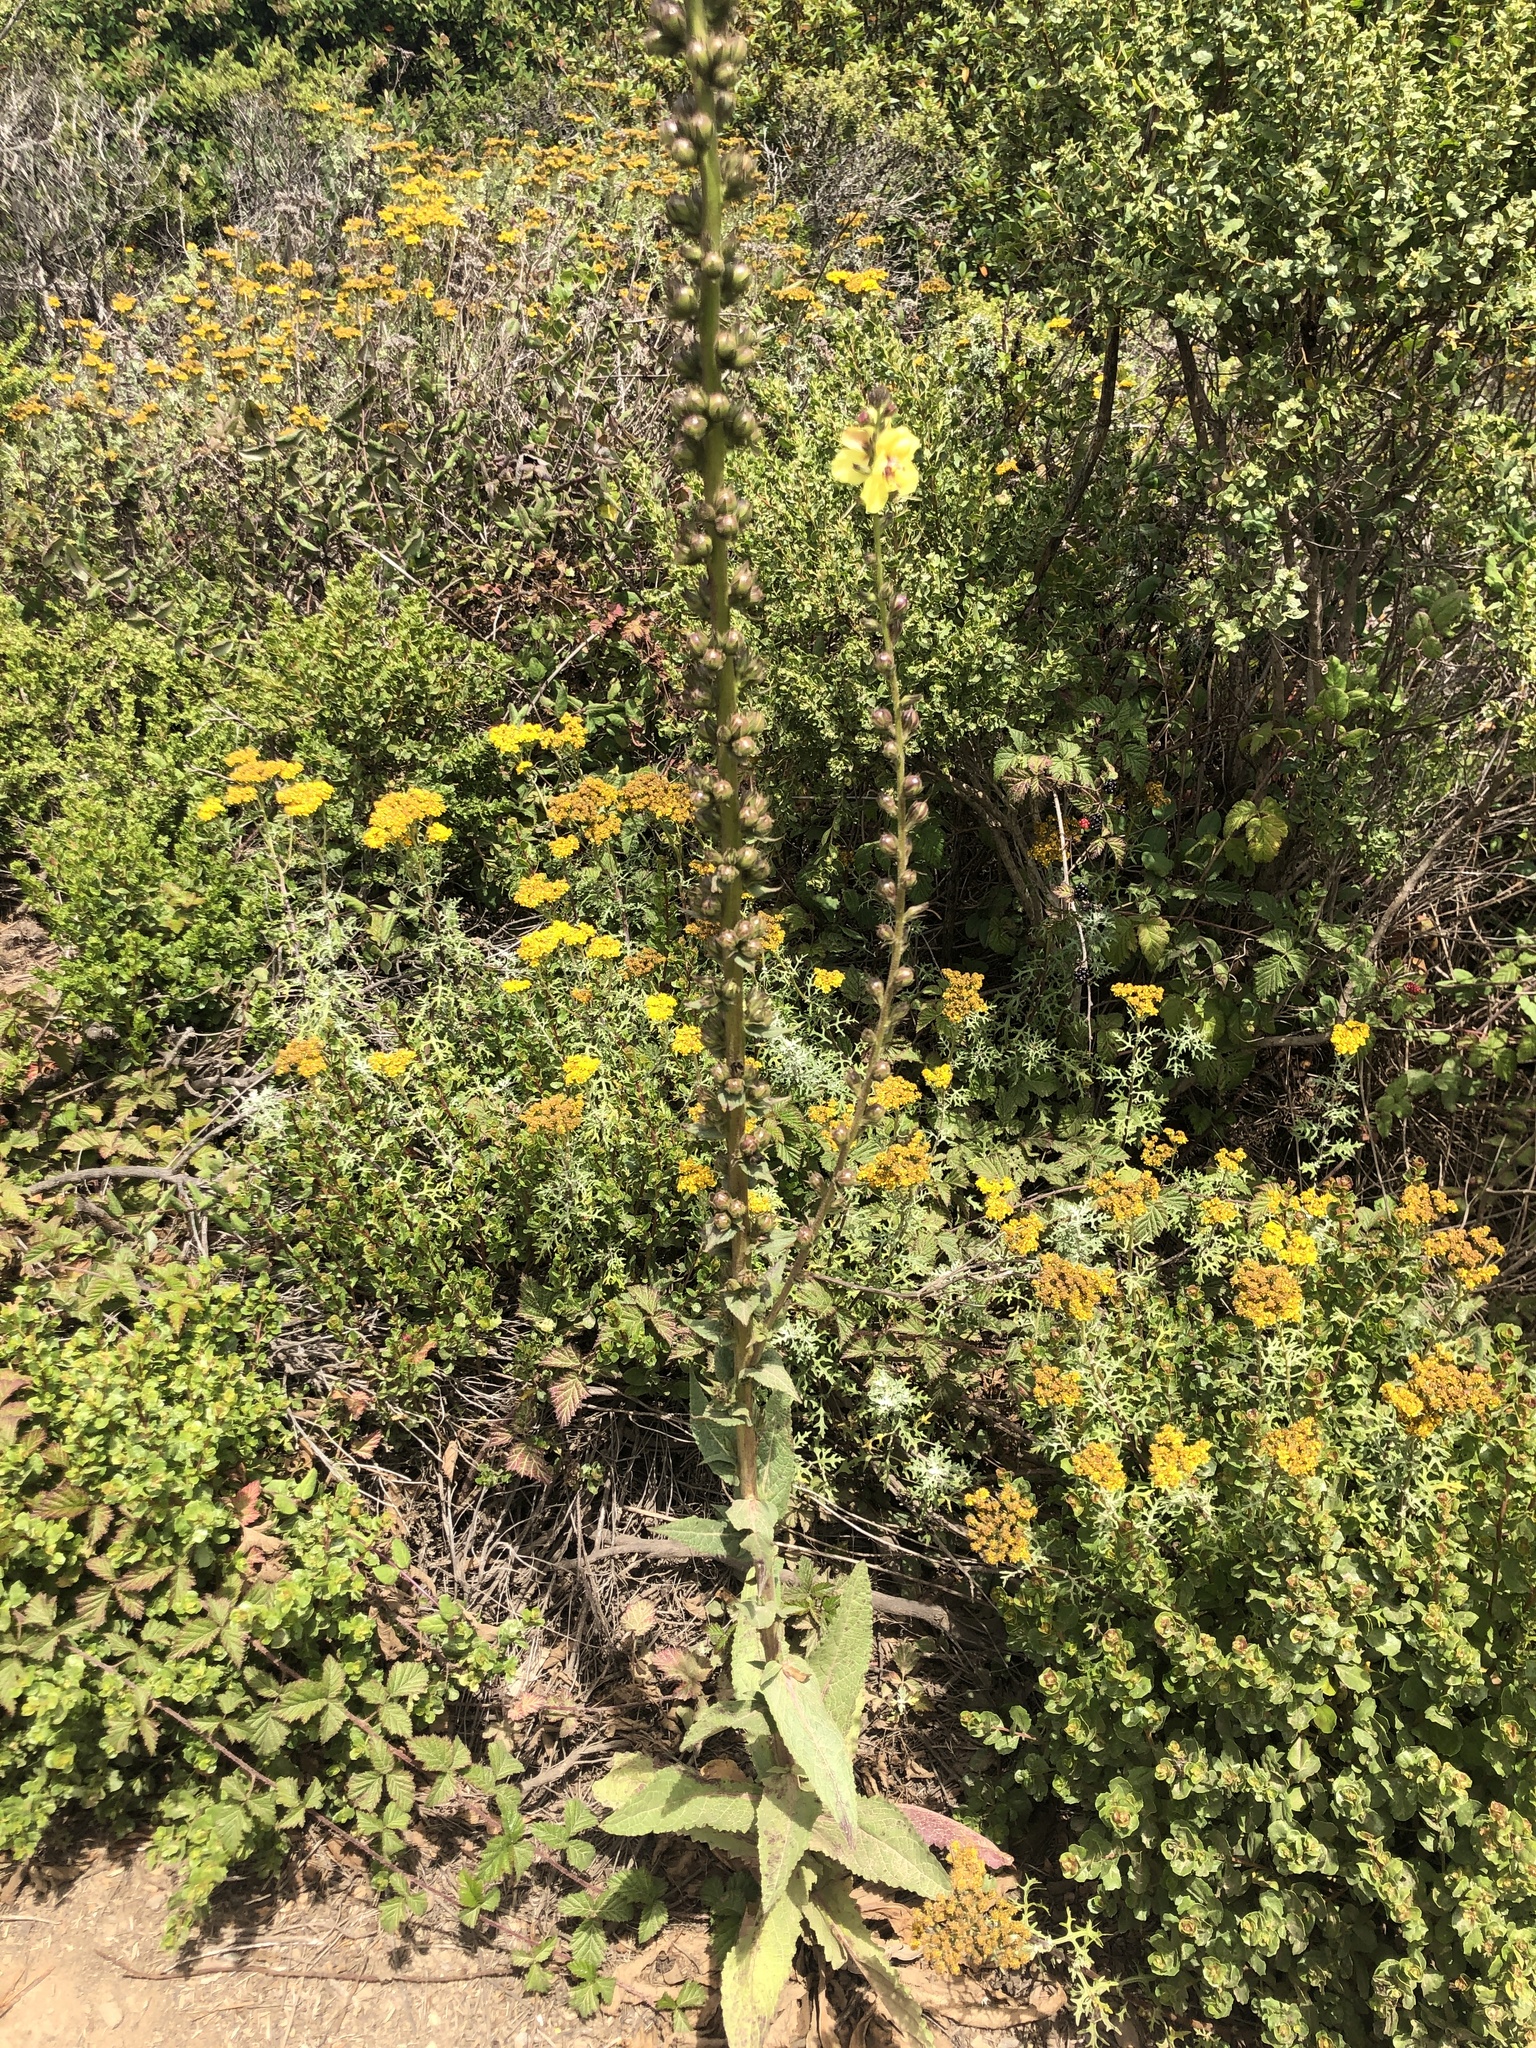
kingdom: Plantae
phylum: Tracheophyta
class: Magnoliopsida
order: Lamiales
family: Scrophulariaceae
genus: Verbascum
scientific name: Verbascum virgatum
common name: Twiggy mullein
